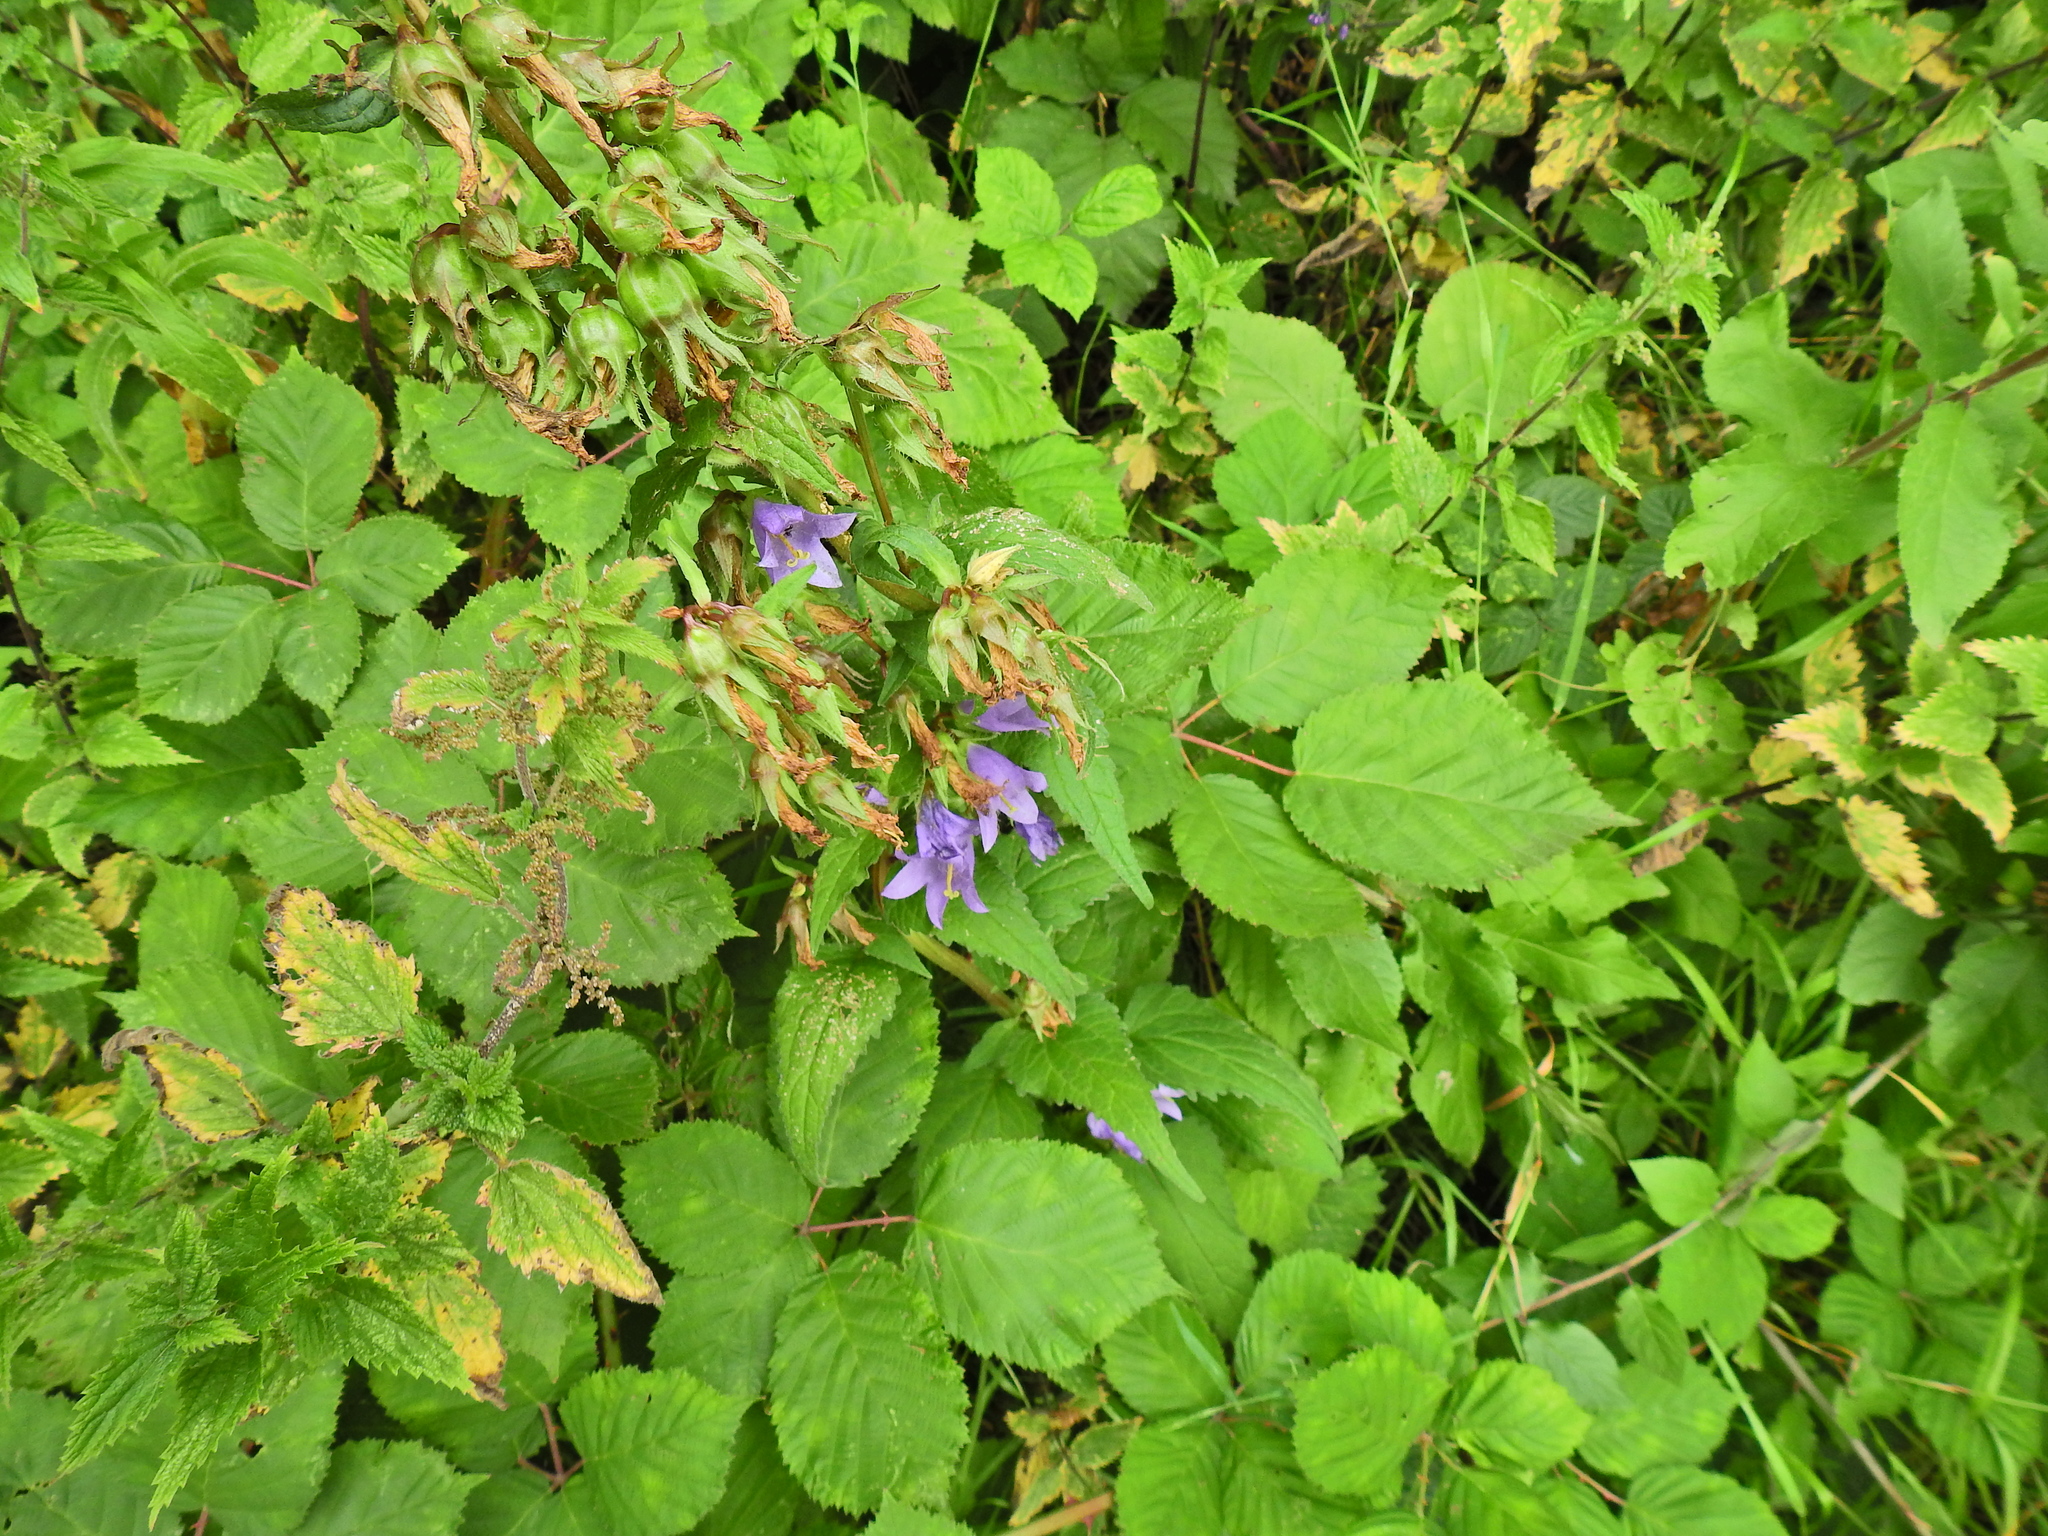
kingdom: Plantae
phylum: Tracheophyta
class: Magnoliopsida
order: Asterales
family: Campanulaceae
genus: Campanula
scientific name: Campanula trachelium
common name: Nettle-leaved bellflower
